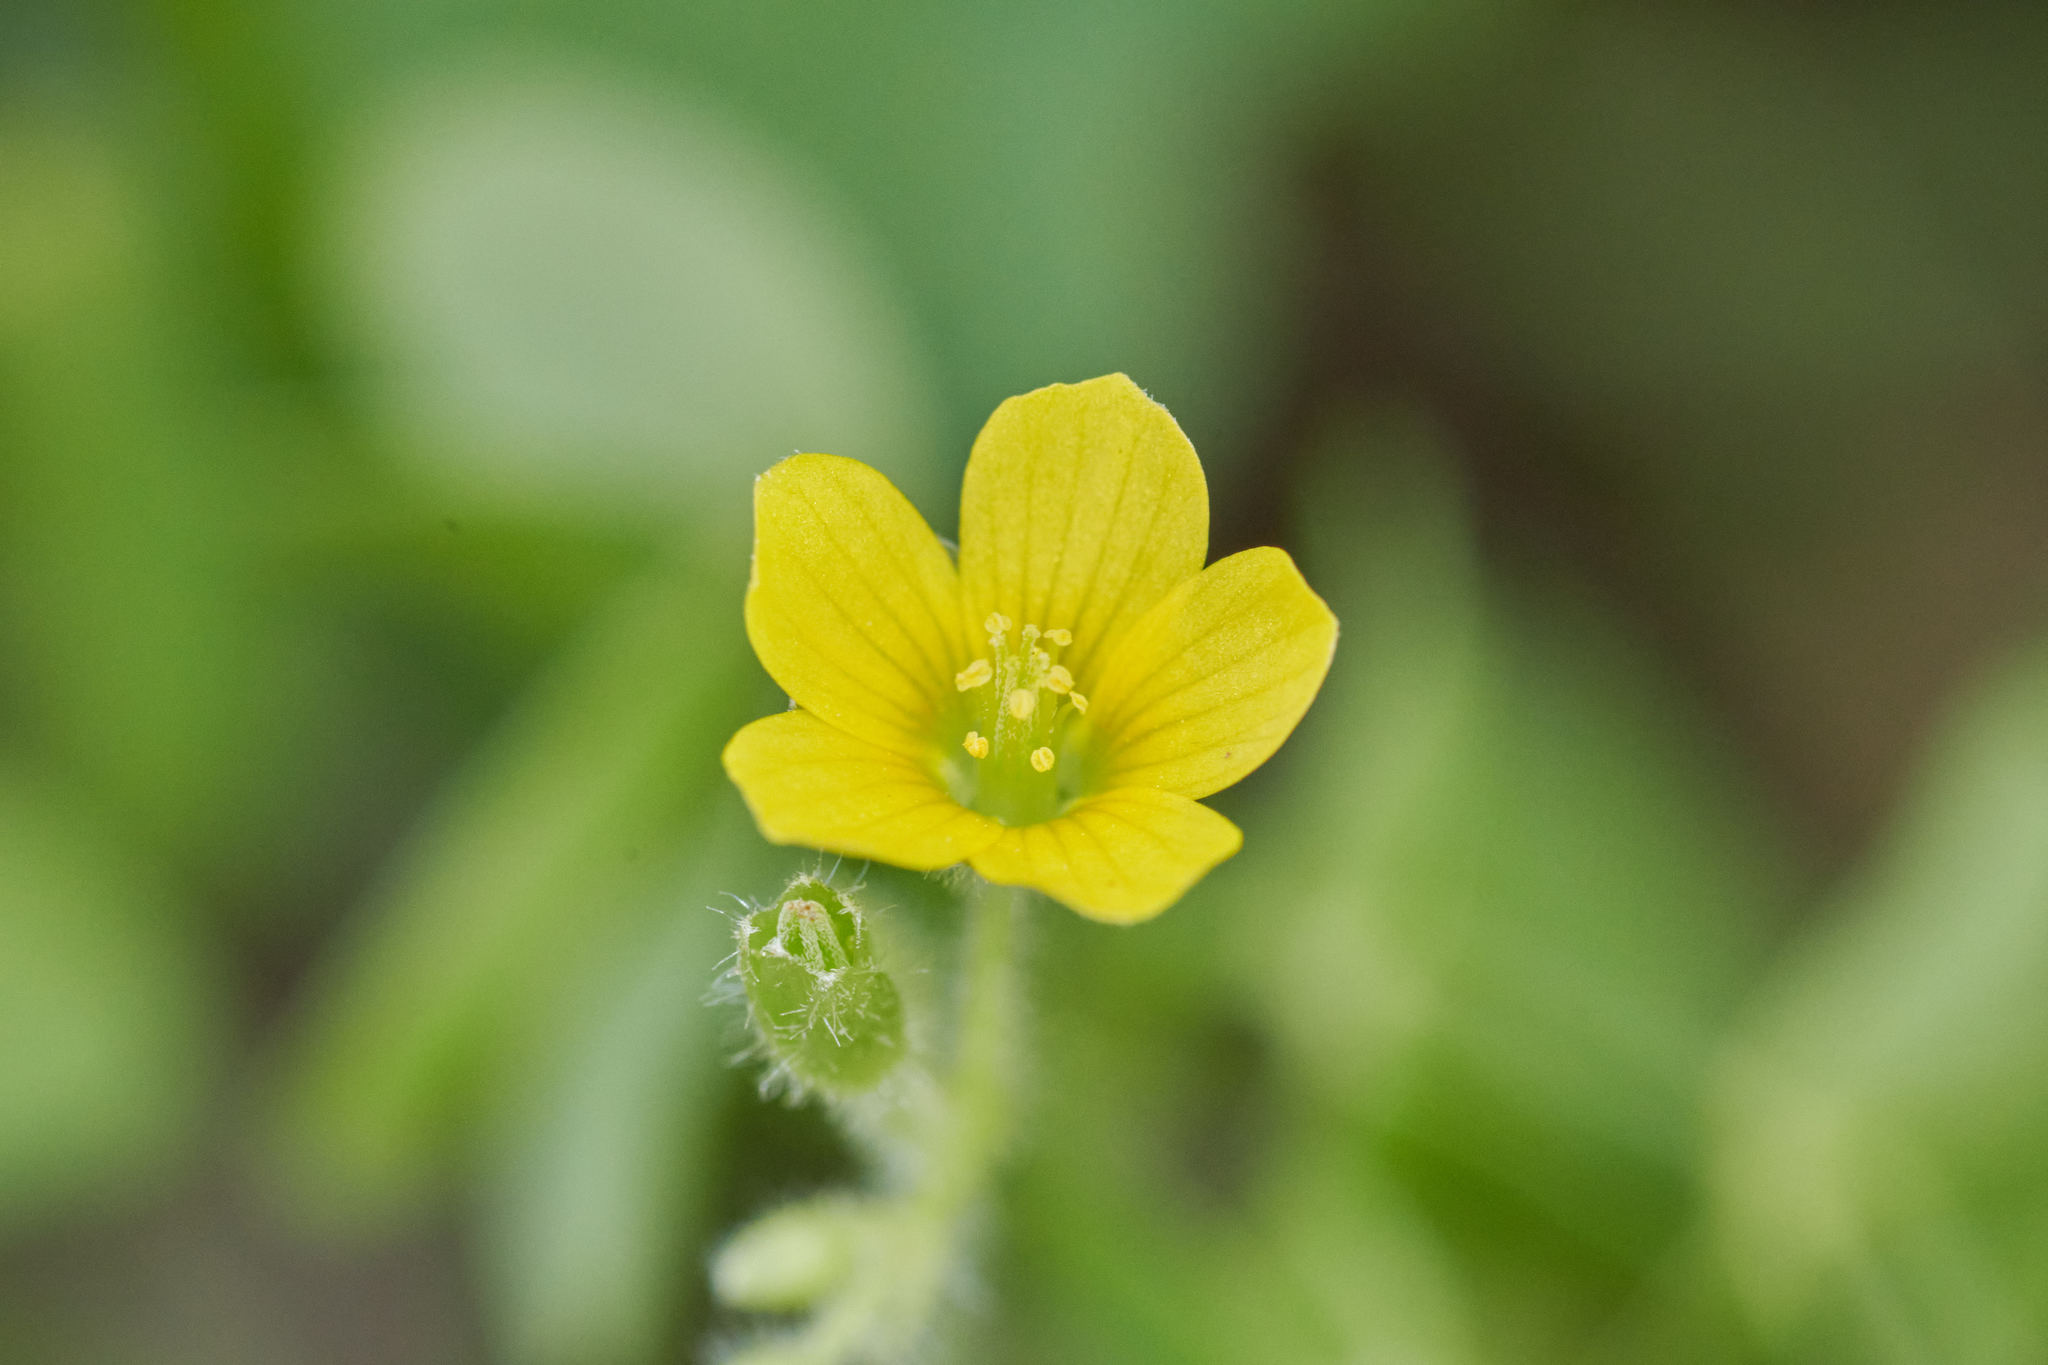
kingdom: Plantae
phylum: Tracheophyta
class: Magnoliopsida
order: Oxalidales
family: Oxalidaceae
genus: Oxalis
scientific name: Oxalis stricta
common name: Upright yellow-sorrel
